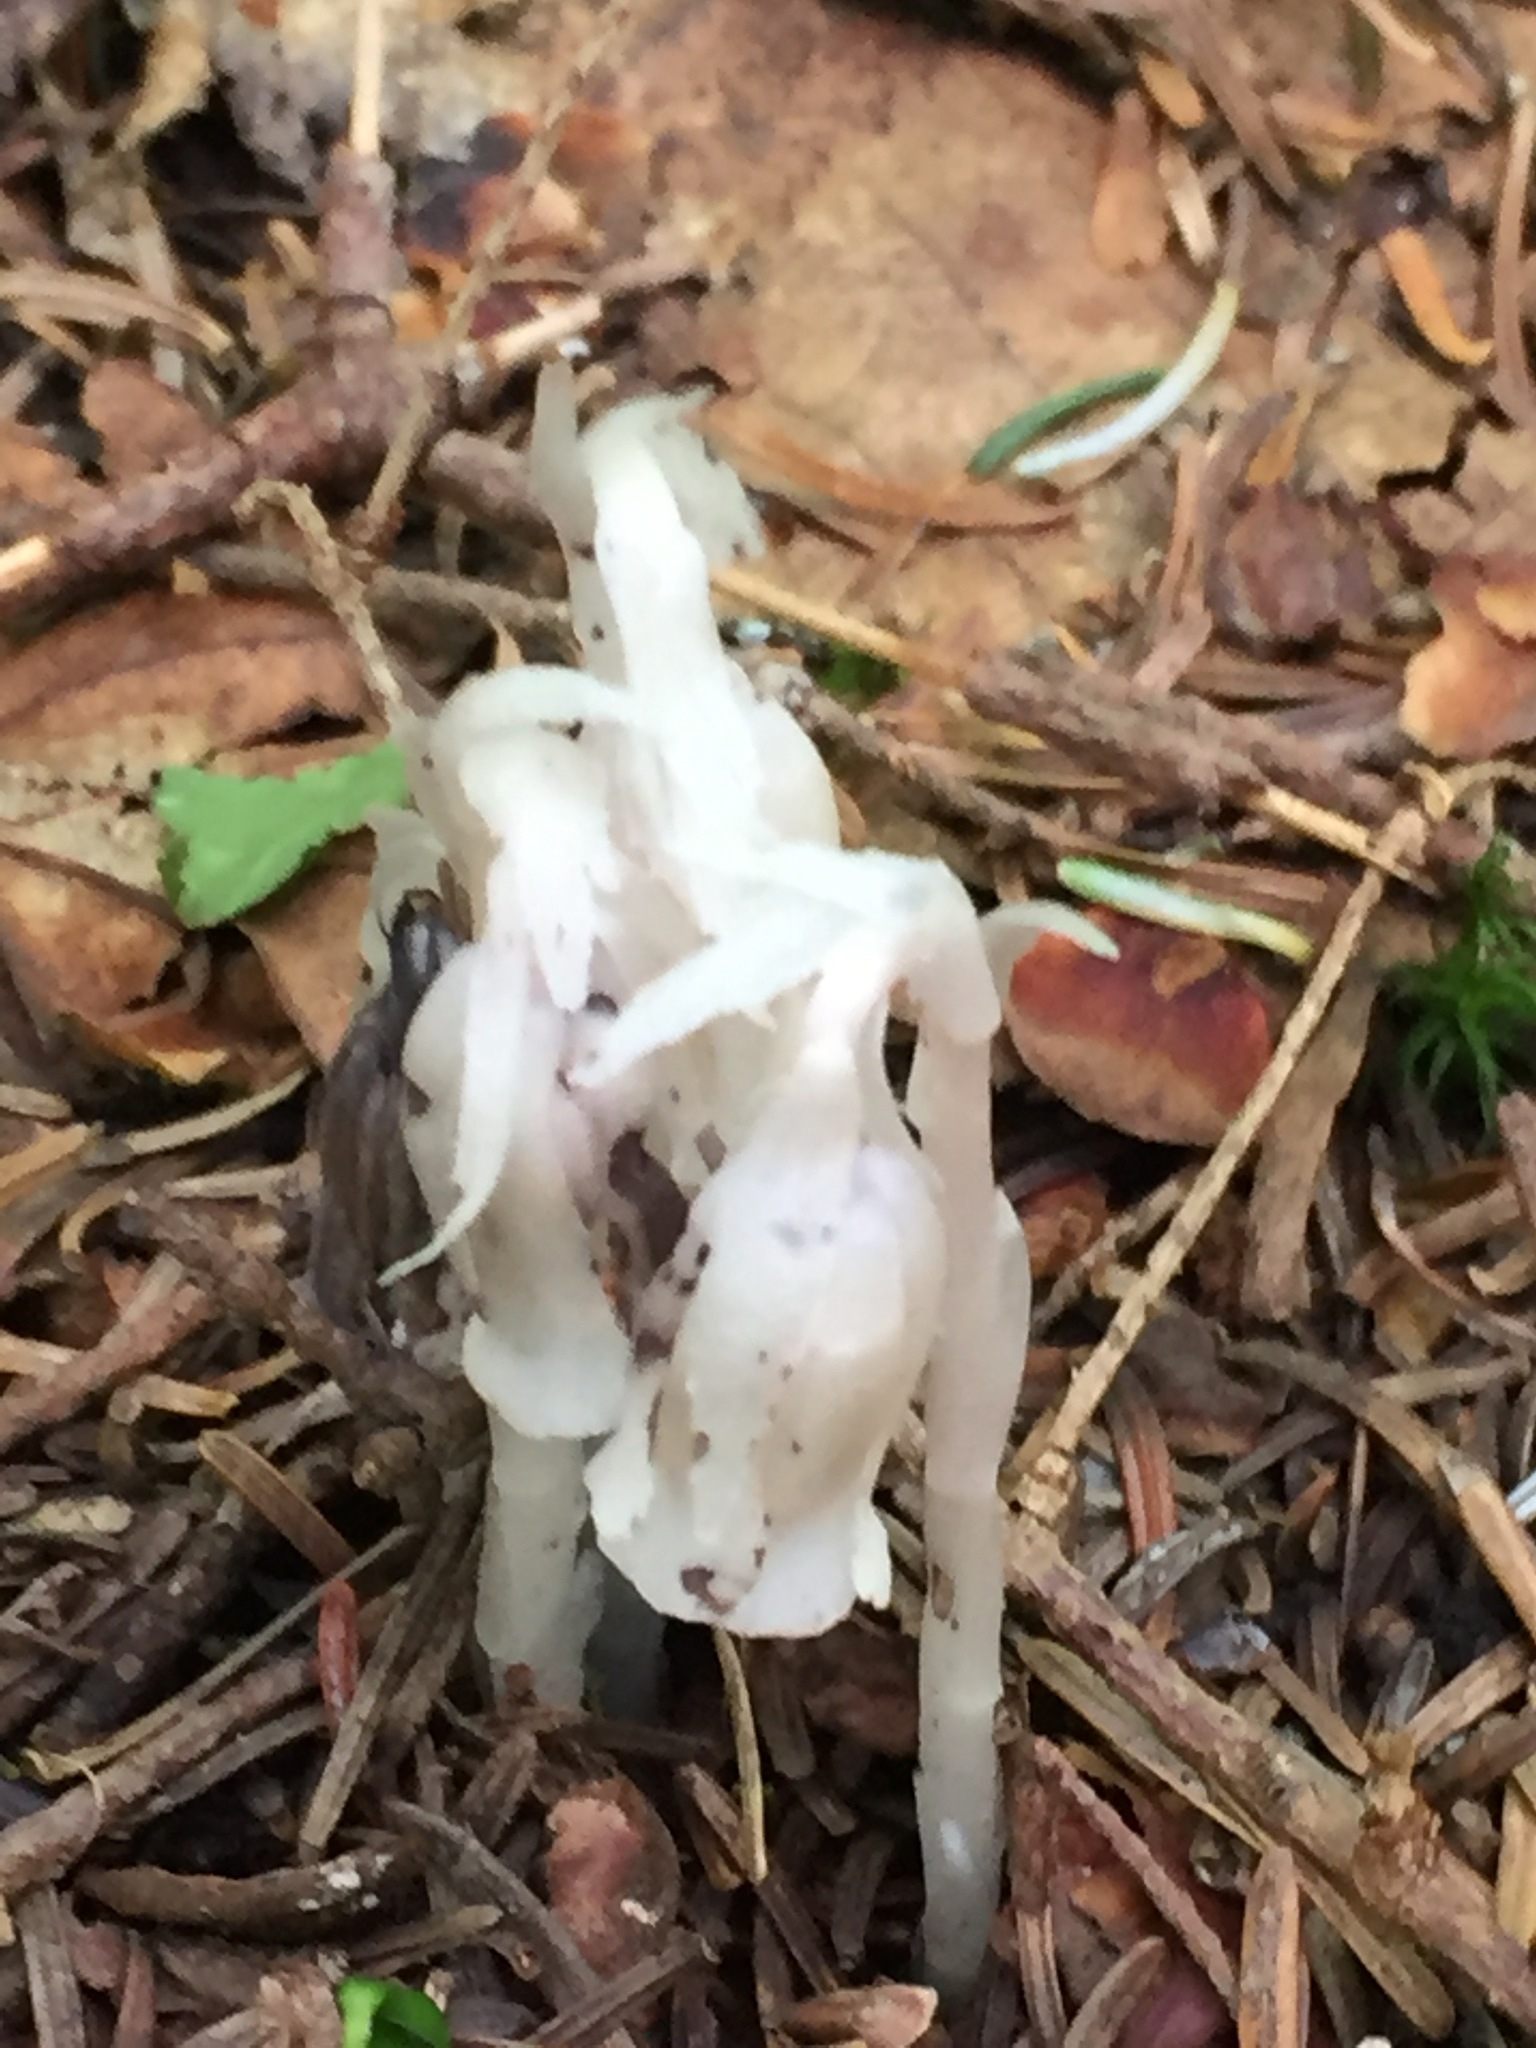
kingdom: Plantae
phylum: Tracheophyta
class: Magnoliopsida
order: Ericales
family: Ericaceae
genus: Monotropa
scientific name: Monotropa uniflora
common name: Convulsion root
